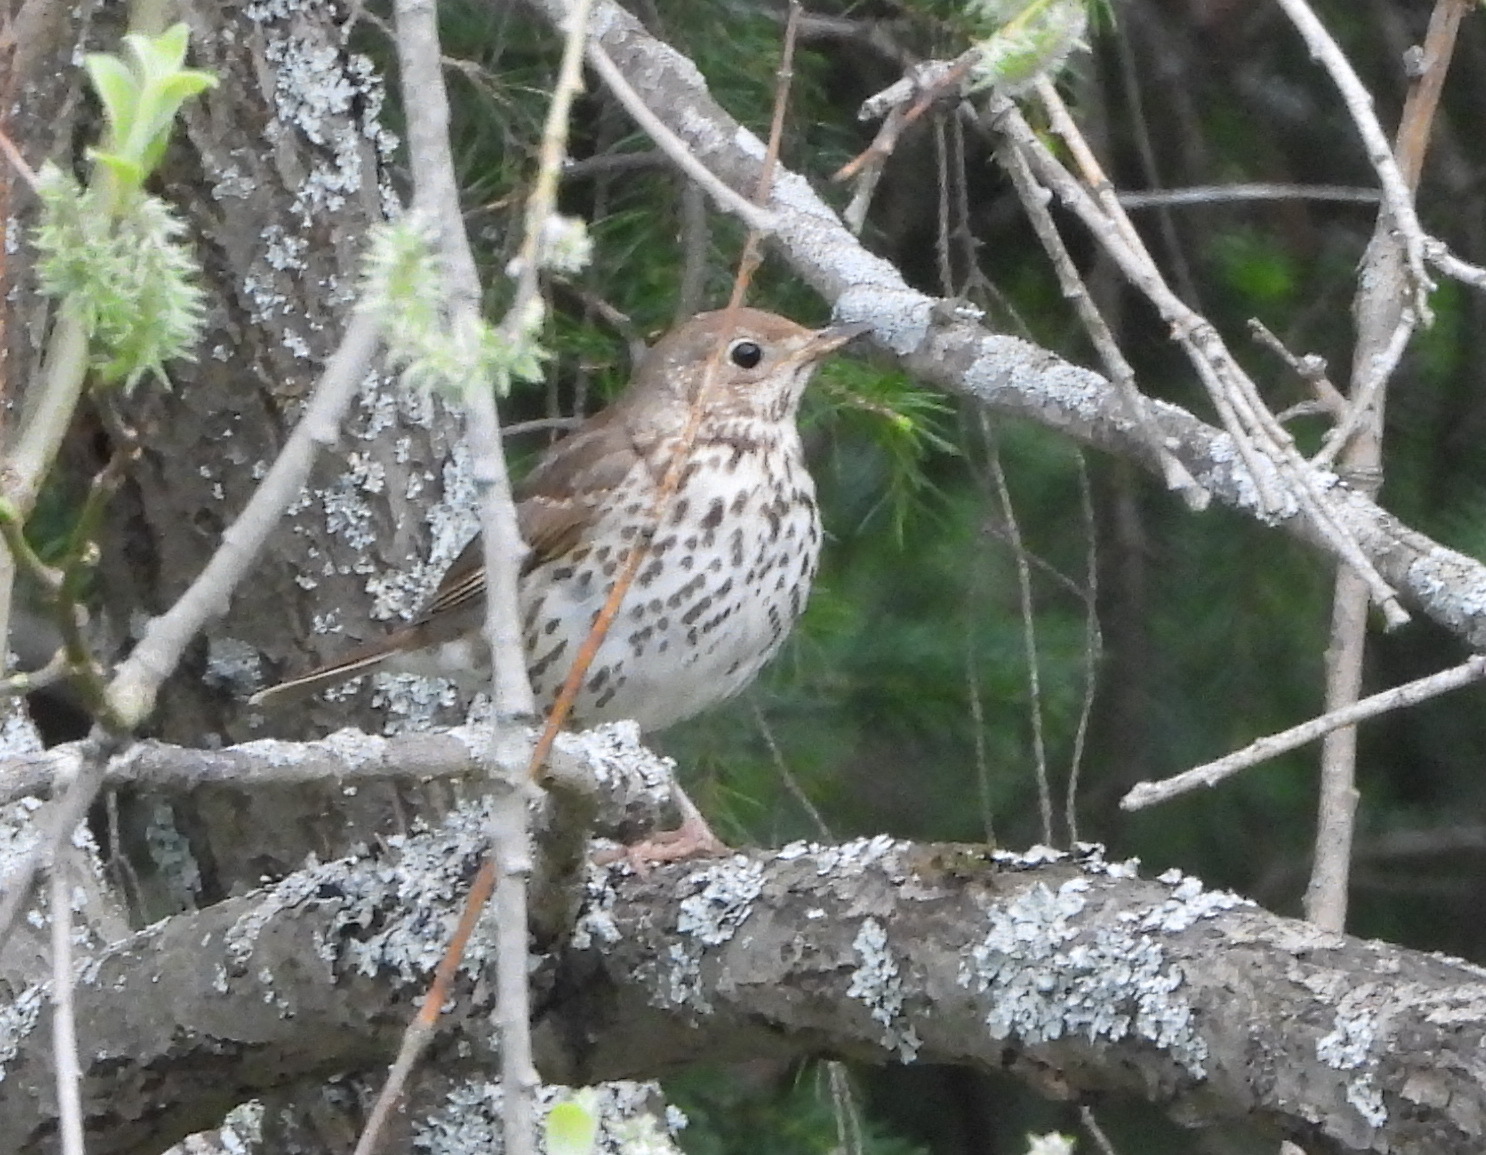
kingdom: Animalia
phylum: Chordata
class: Aves
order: Passeriformes
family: Turdidae
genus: Turdus
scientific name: Turdus philomelos
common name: Song thrush
